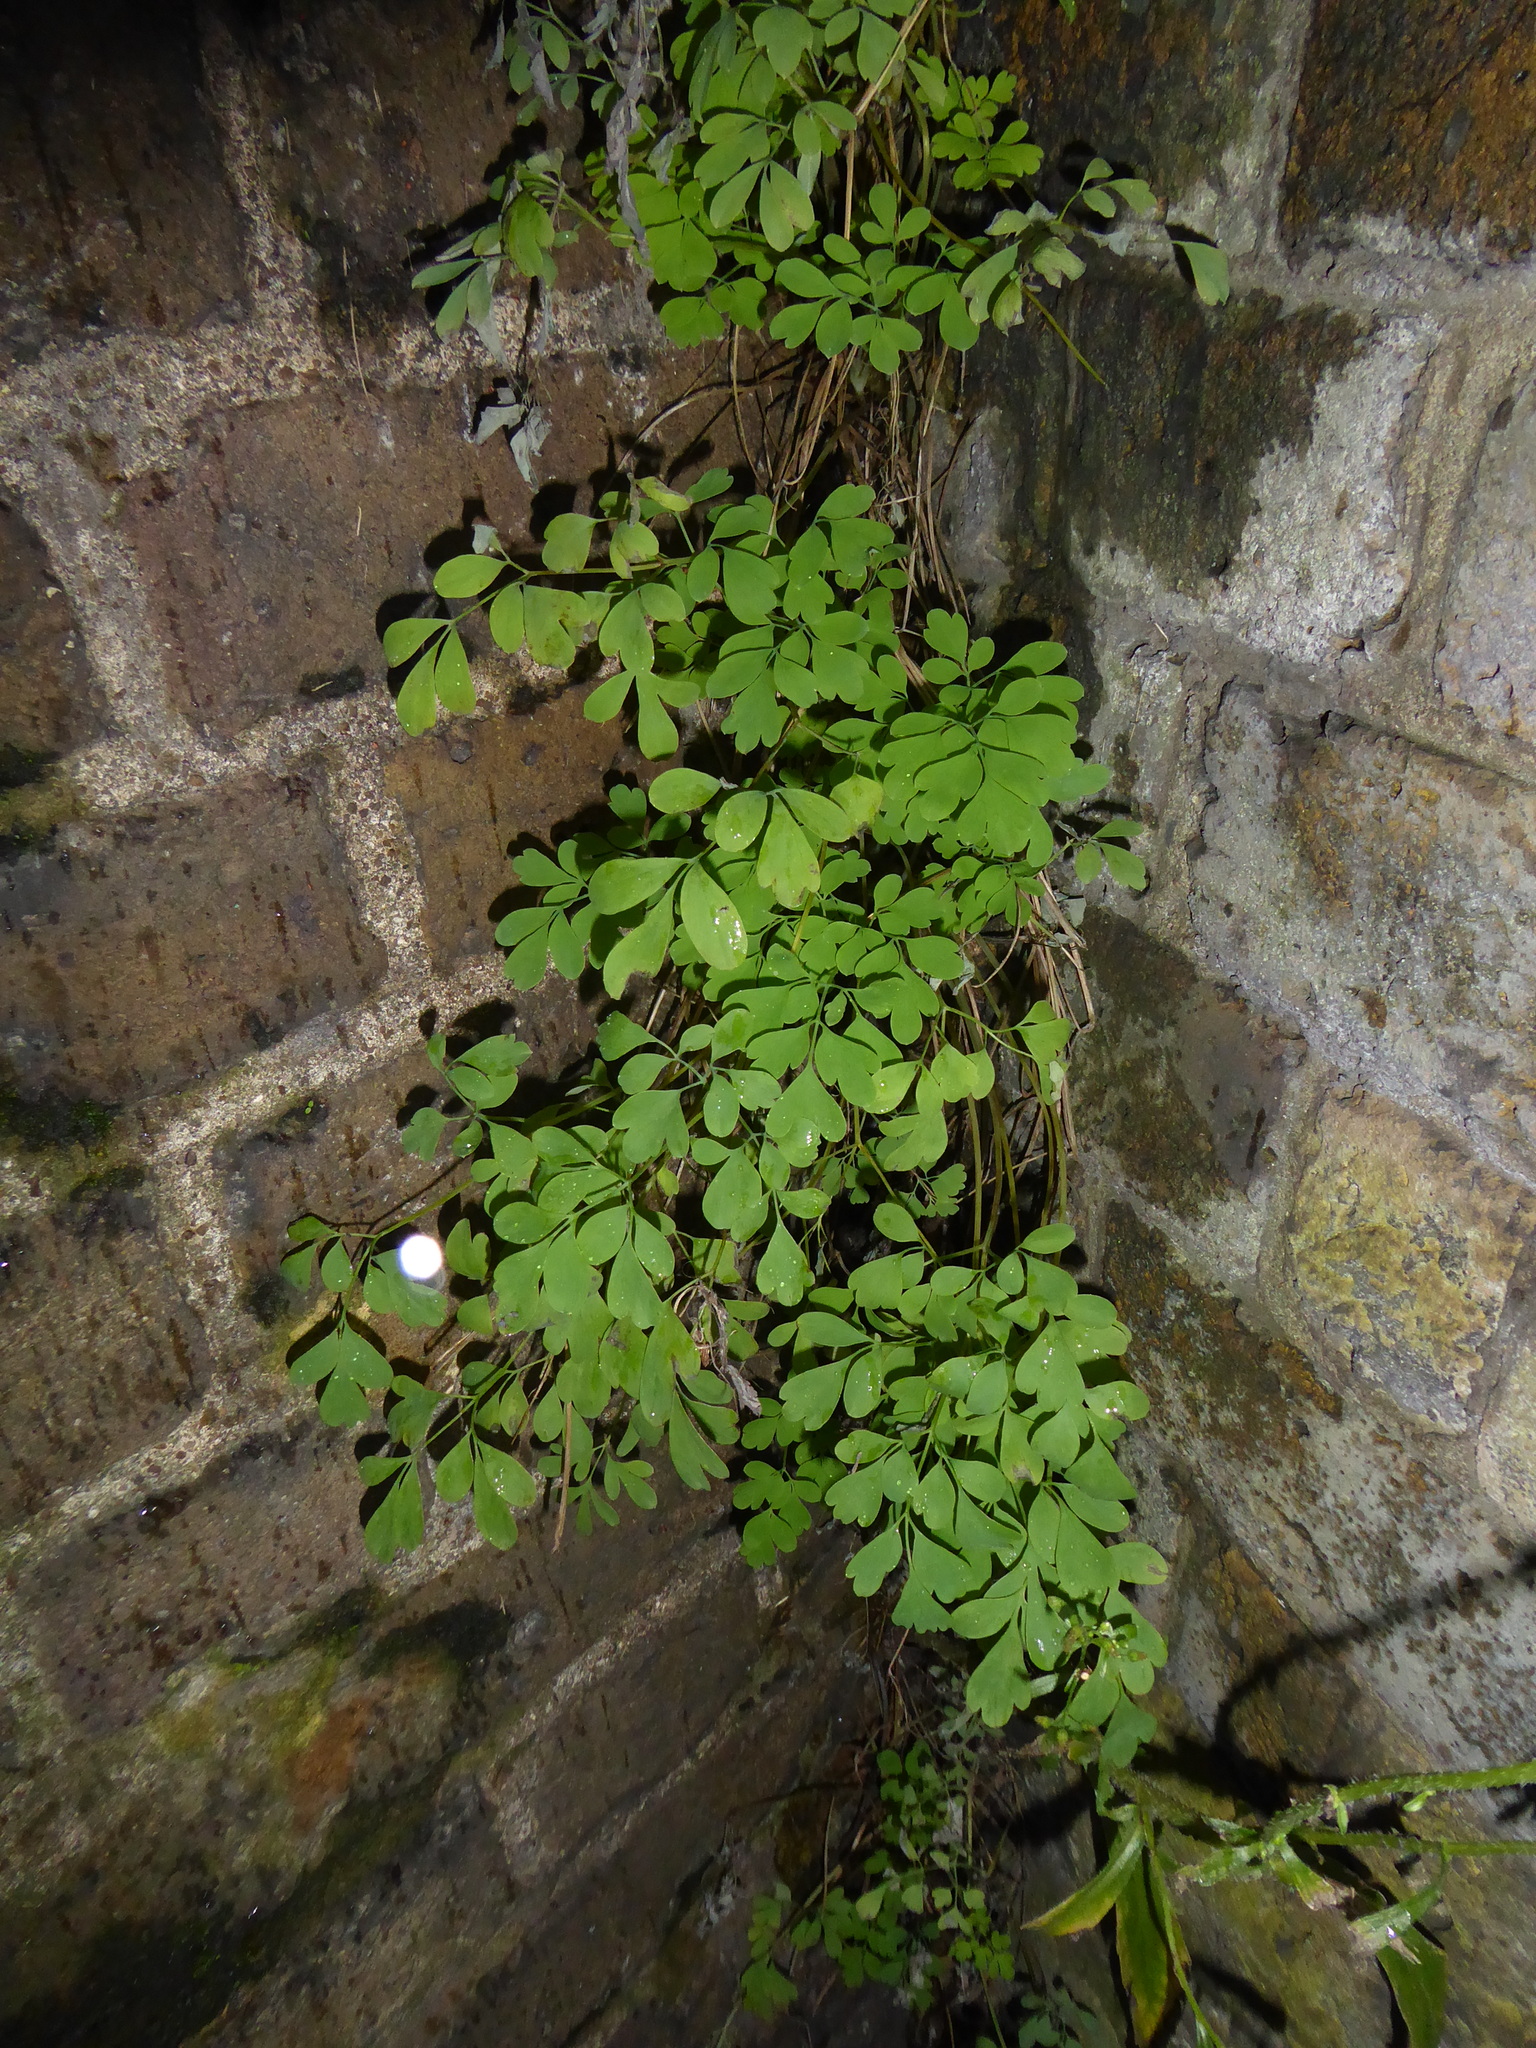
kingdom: Plantae
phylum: Tracheophyta
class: Magnoliopsida
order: Ranunculales
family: Papaveraceae
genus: Pseudofumaria
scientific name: Pseudofumaria lutea
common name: Yellow corydalis
